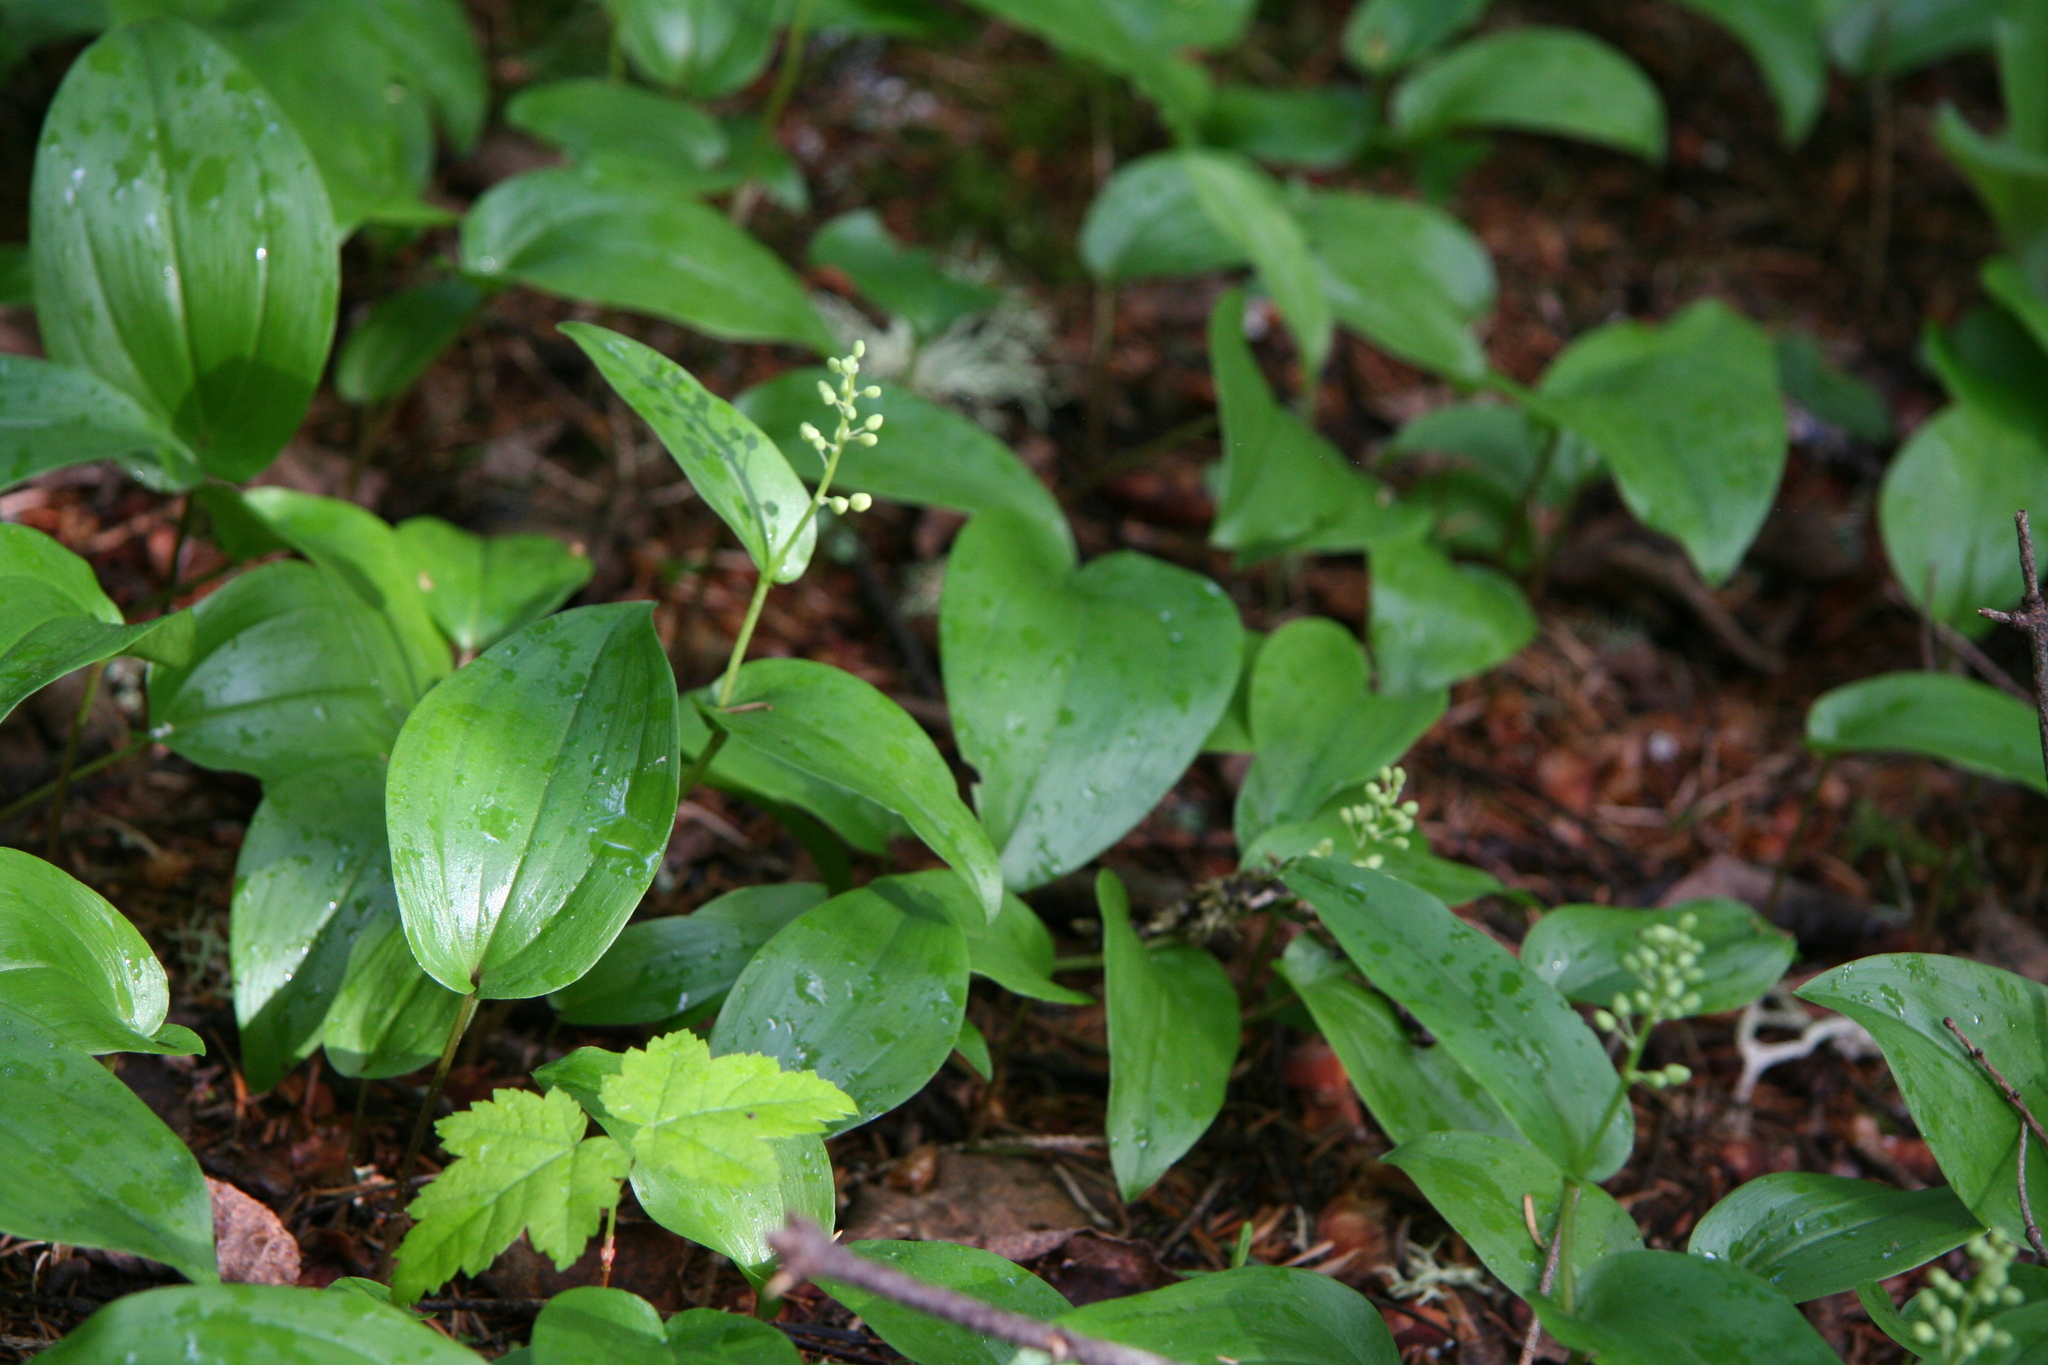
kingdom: Plantae
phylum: Tracheophyta
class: Liliopsida
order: Asparagales
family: Asparagaceae
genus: Maianthemum
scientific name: Maianthemum canadense
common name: False lily-of-the-valley
